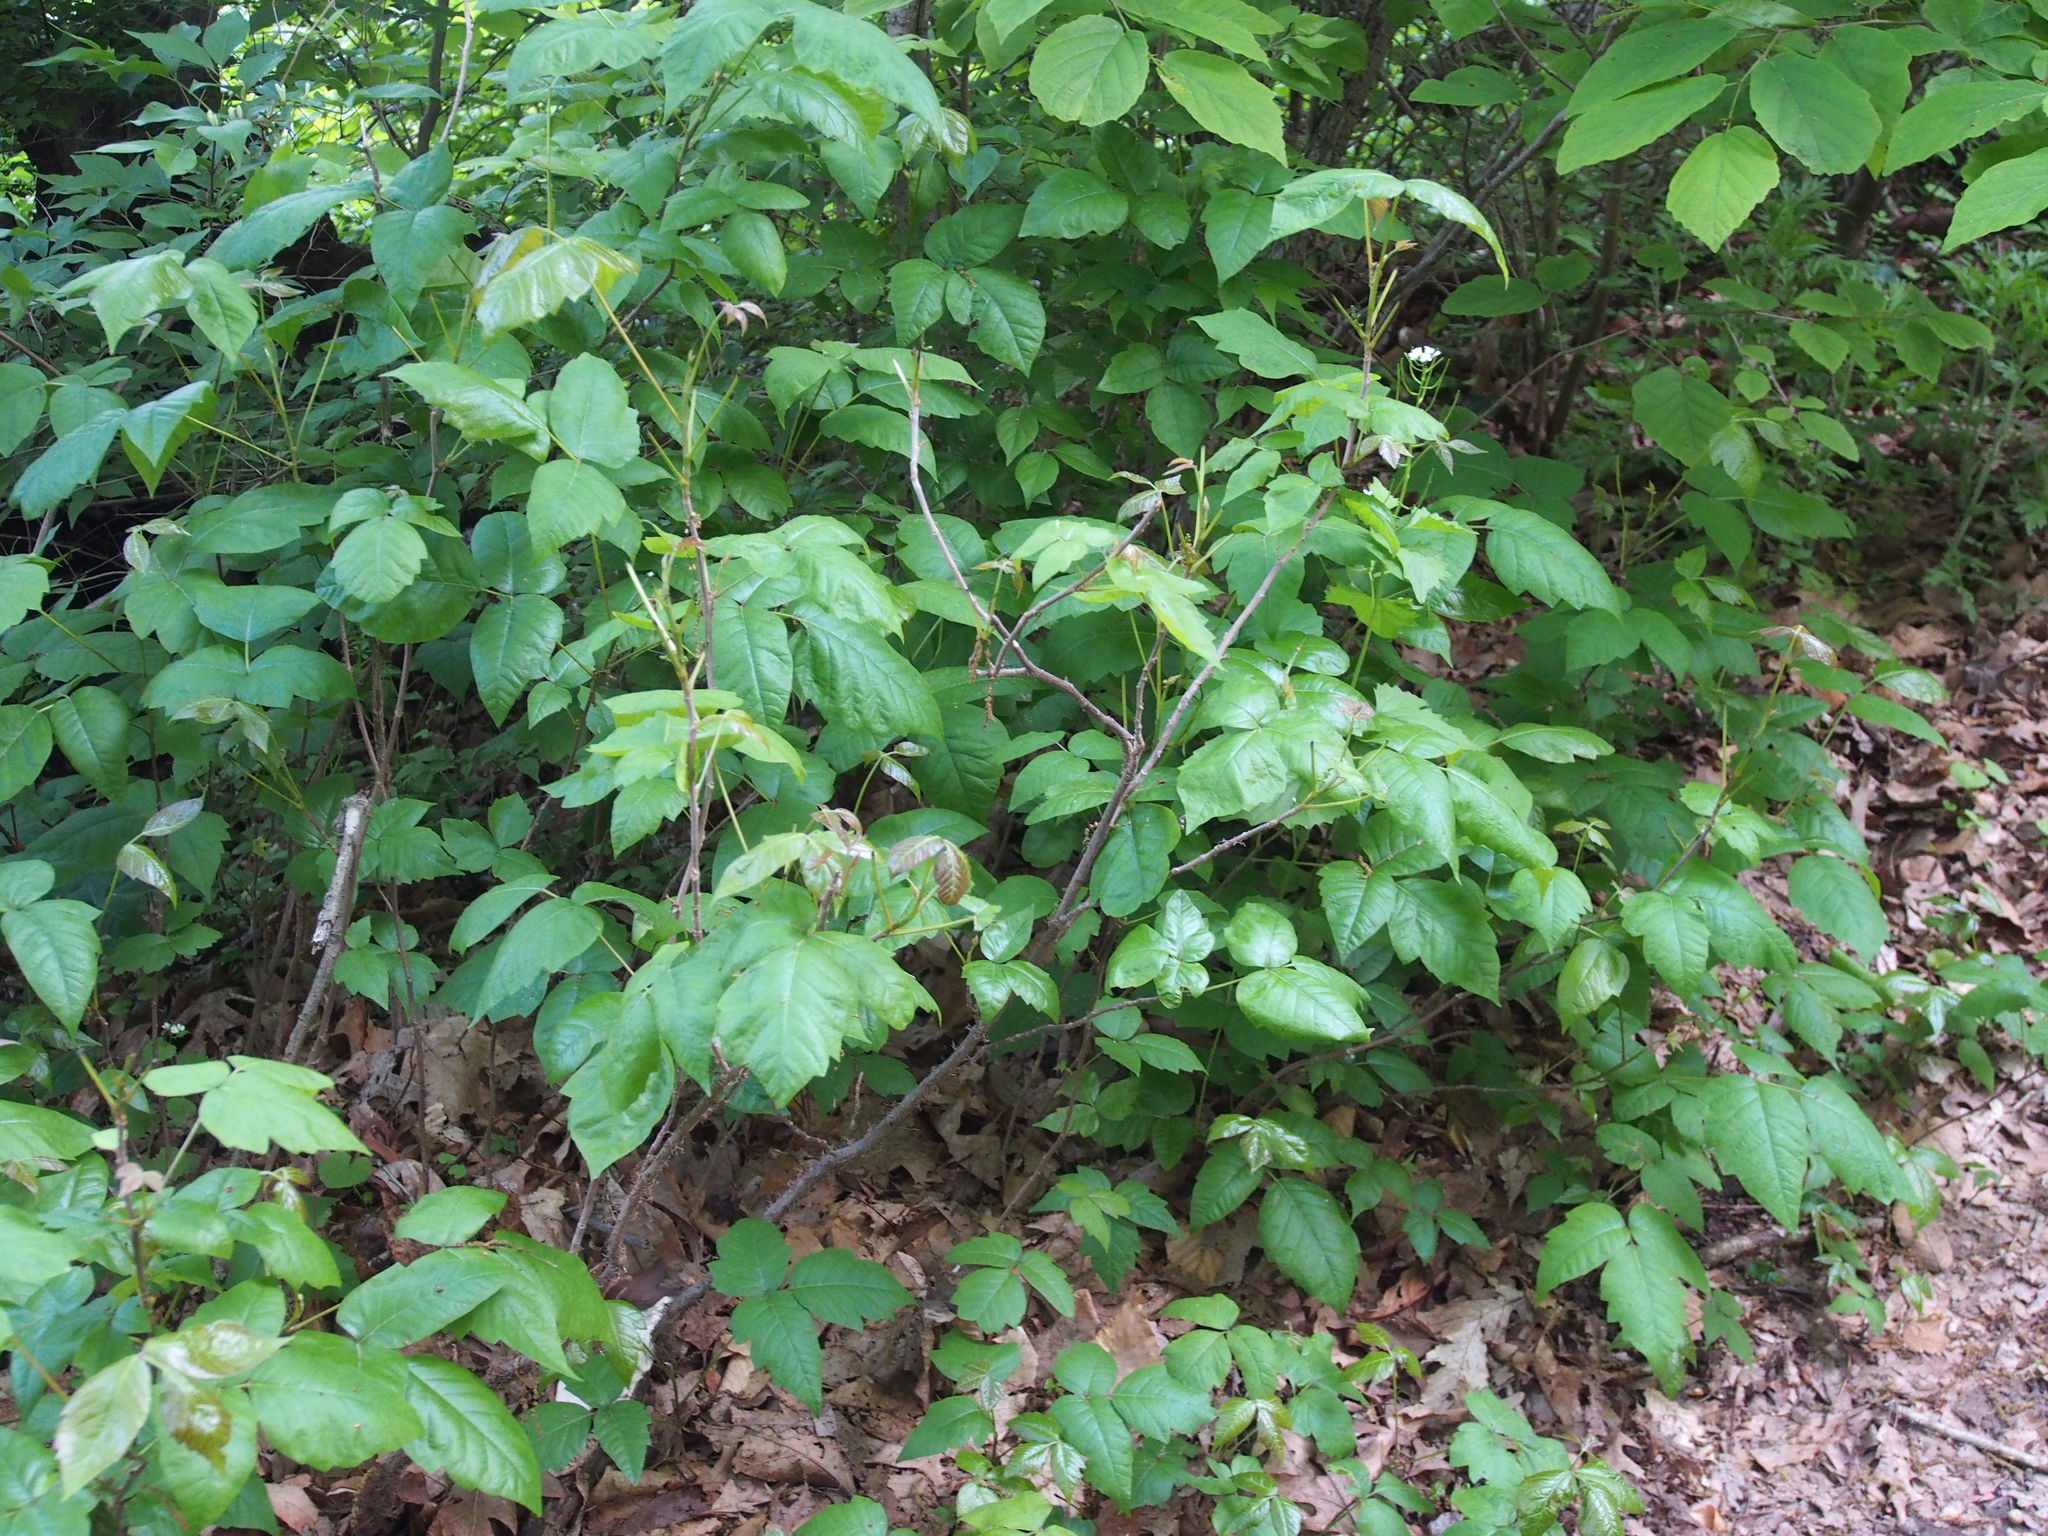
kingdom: Plantae
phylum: Tracheophyta
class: Magnoliopsida
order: Sapindales
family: Anacardiaceae
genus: Toxicodendron
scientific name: Toxicodendron radicans
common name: Poison ivy
